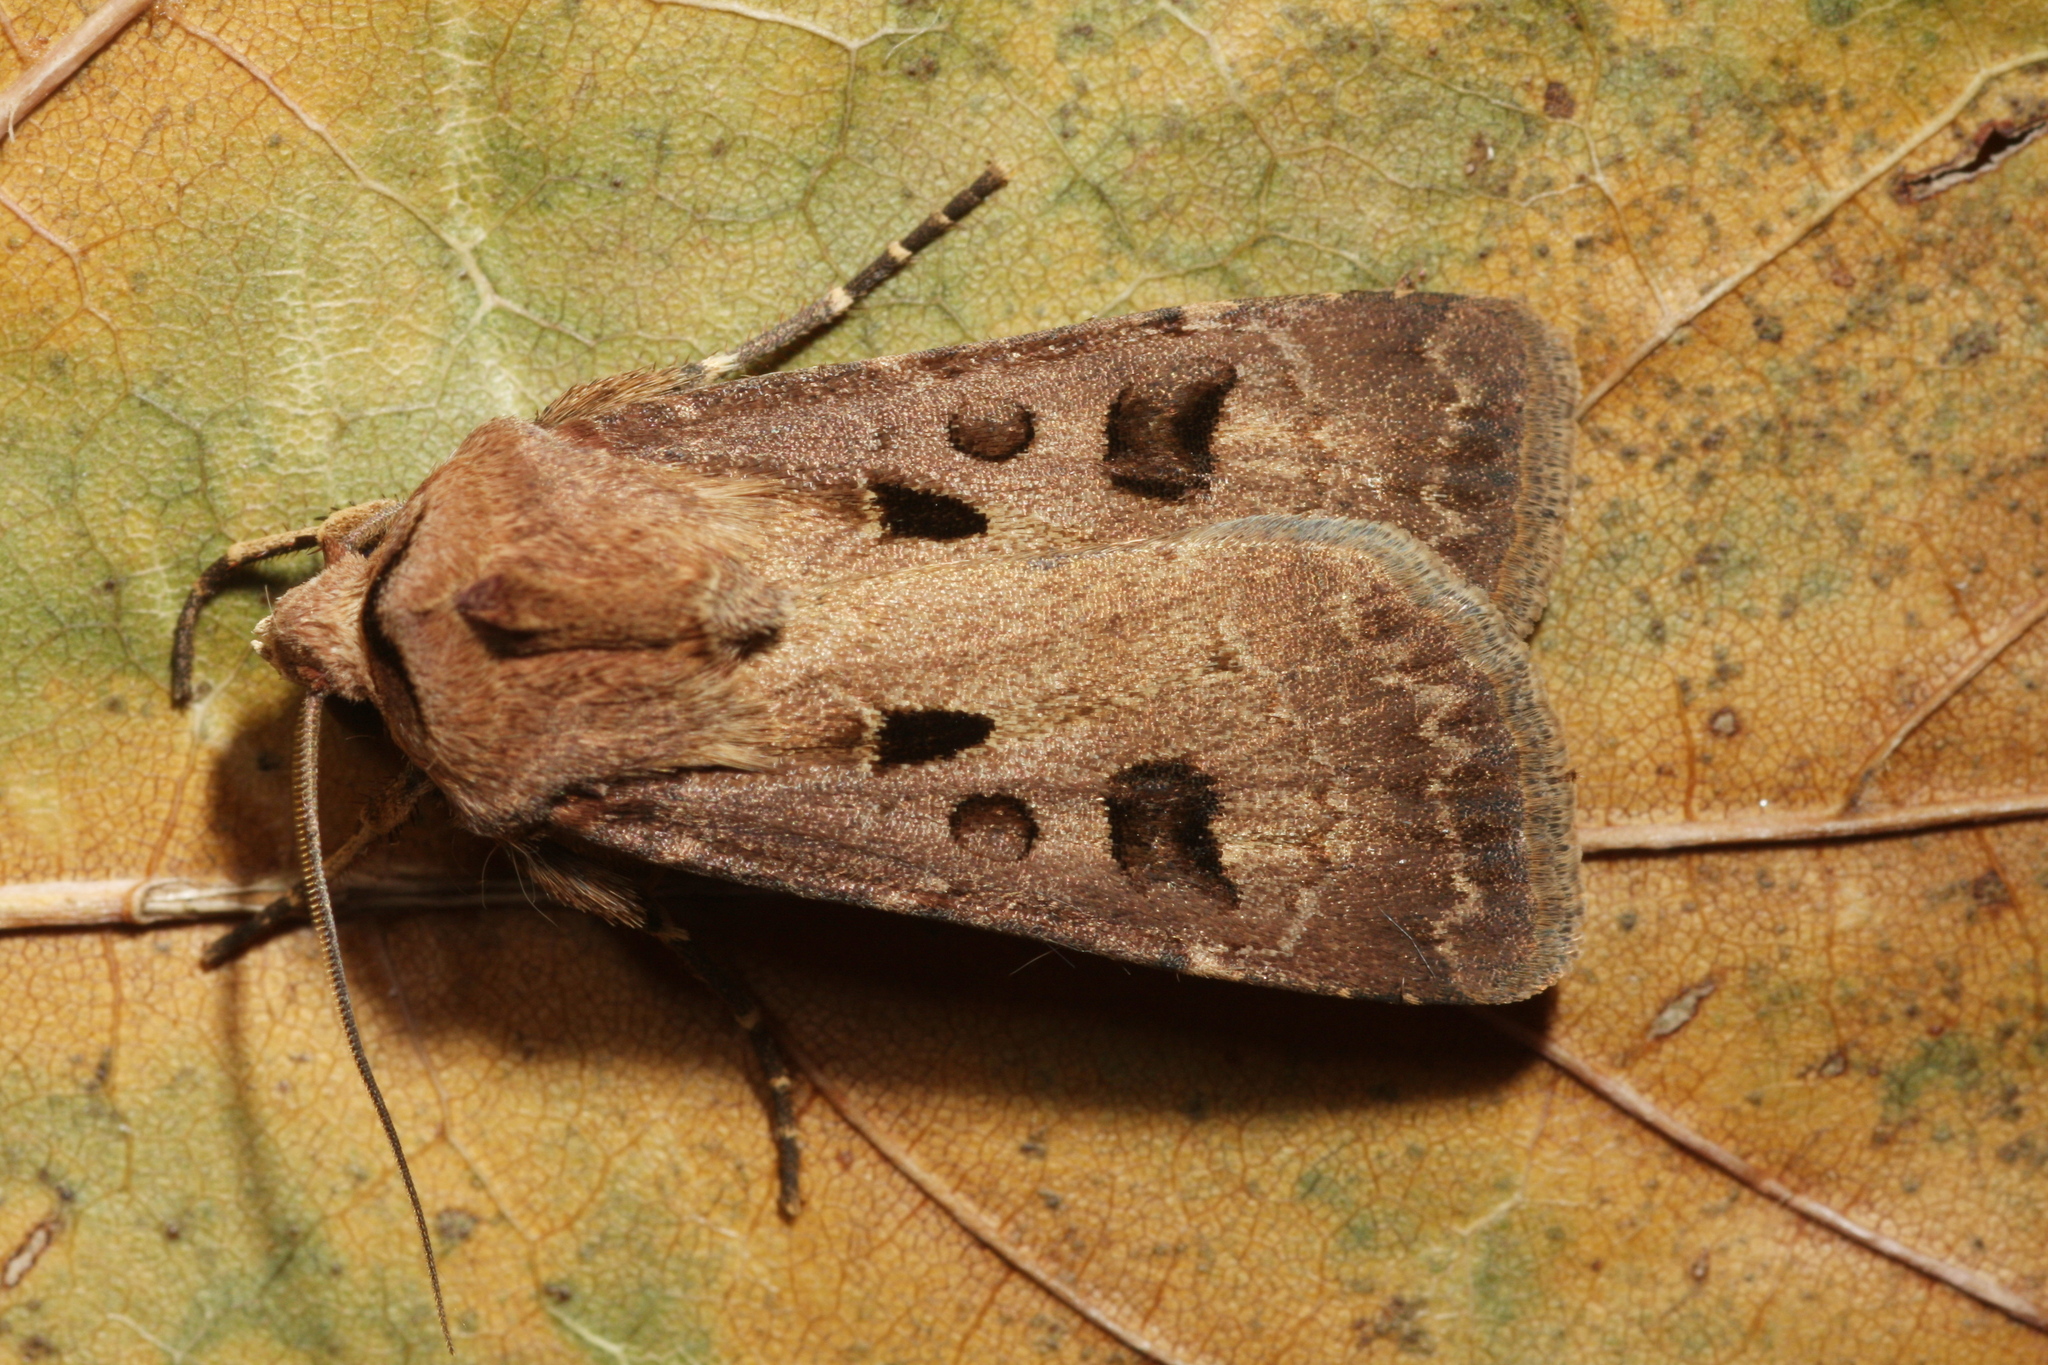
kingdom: Animalia
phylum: Arthropoda
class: Insecta
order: Lepidoptera
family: Noctuidae
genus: Agrotis
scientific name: Agrotis exclamationis
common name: Heart and dart
